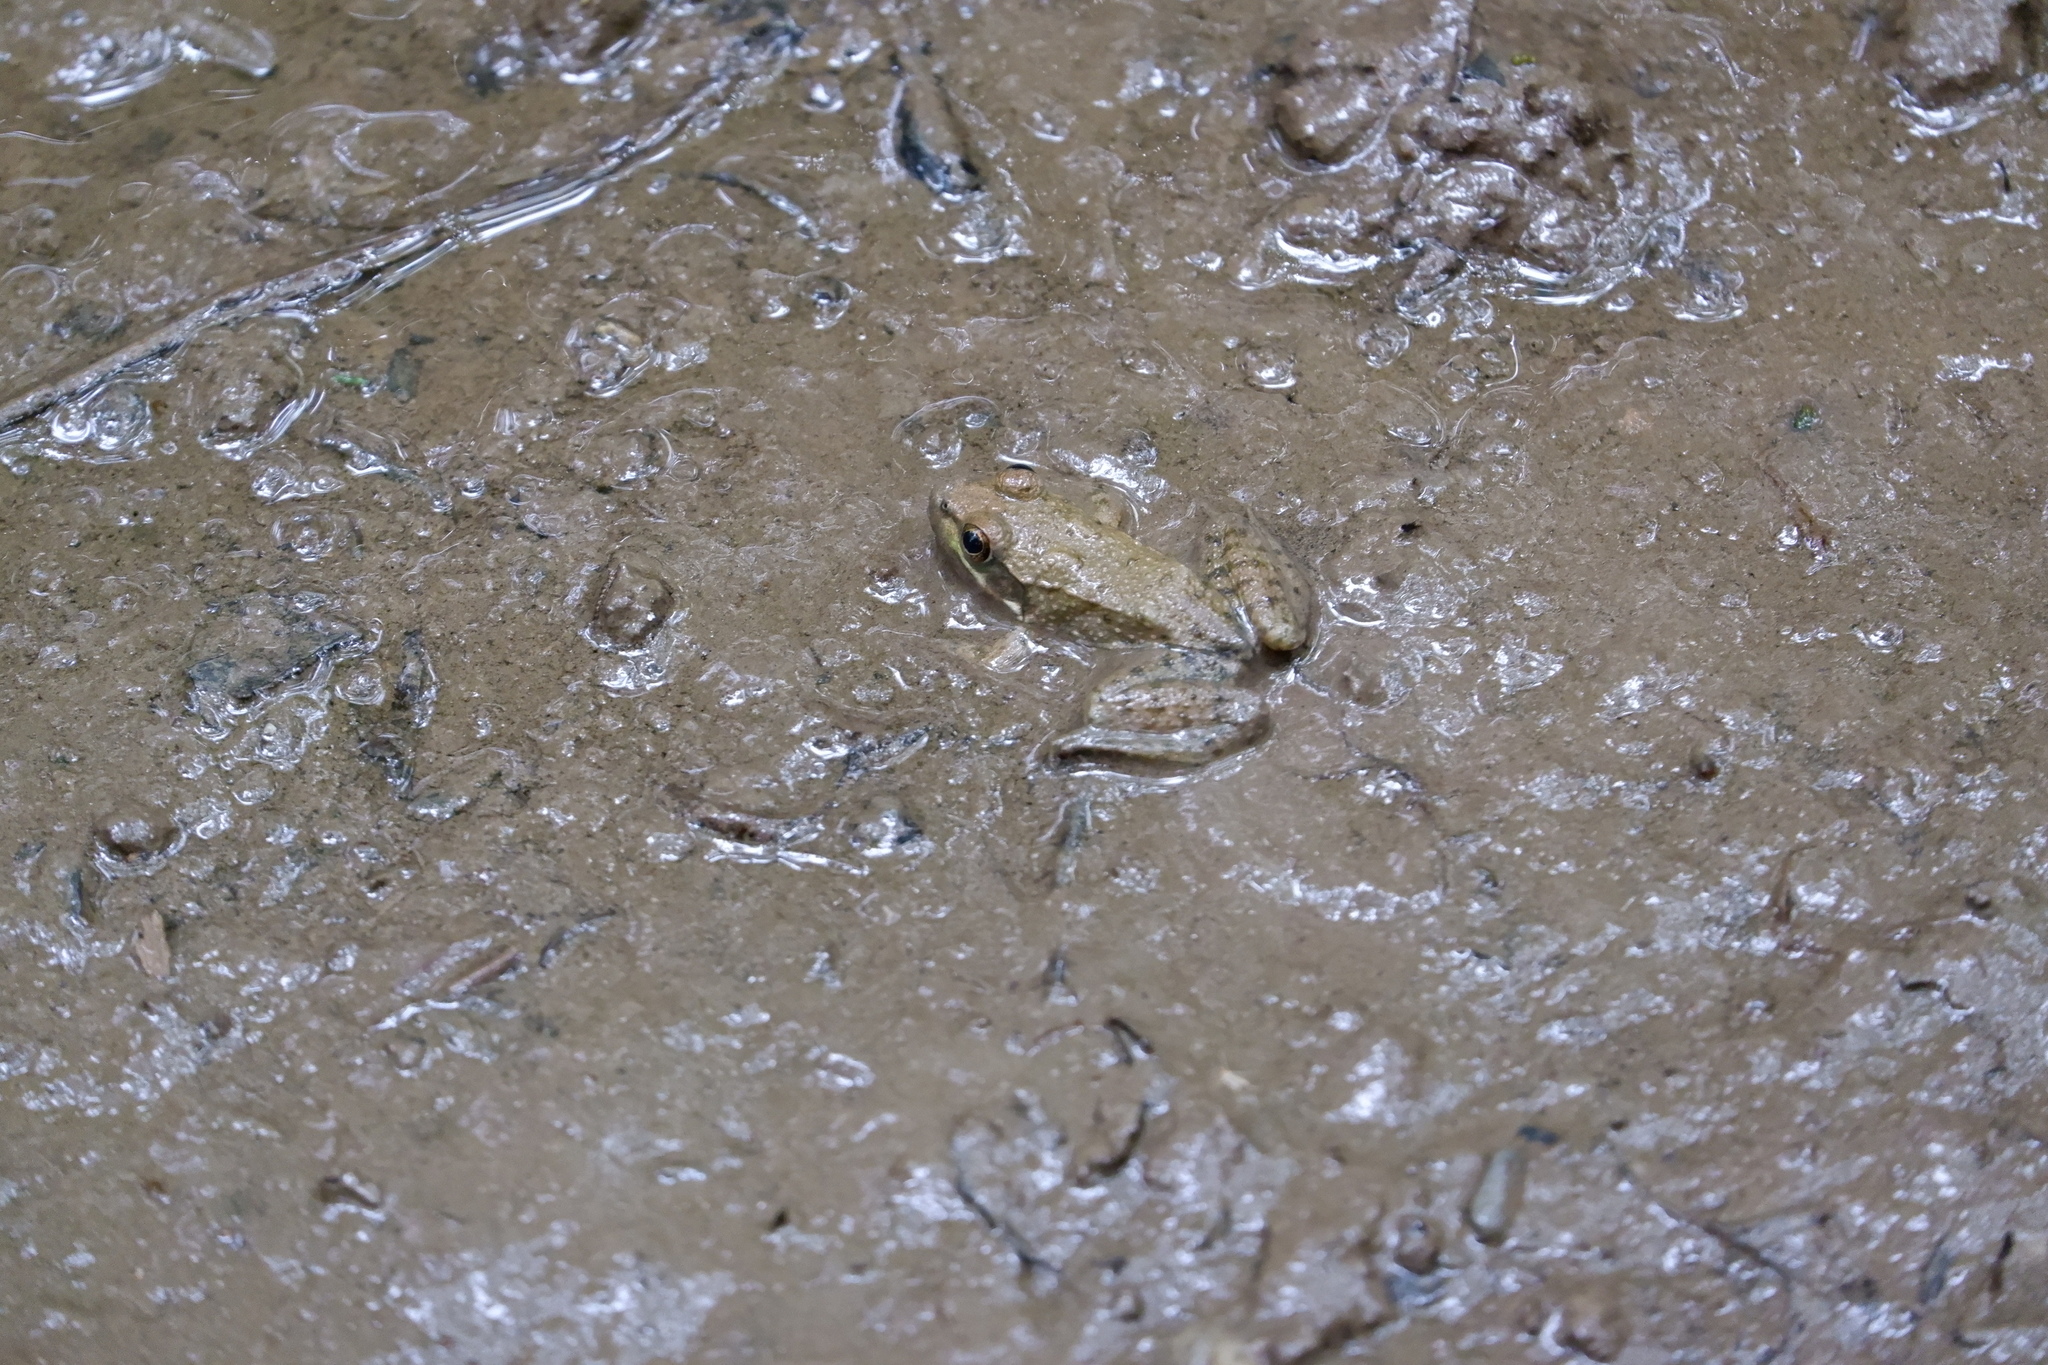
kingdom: Animalia
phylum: Chordata
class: Amphibia
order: Anura
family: Ranidae
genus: Lithobates
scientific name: Lithobates clamitans
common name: Green frog
